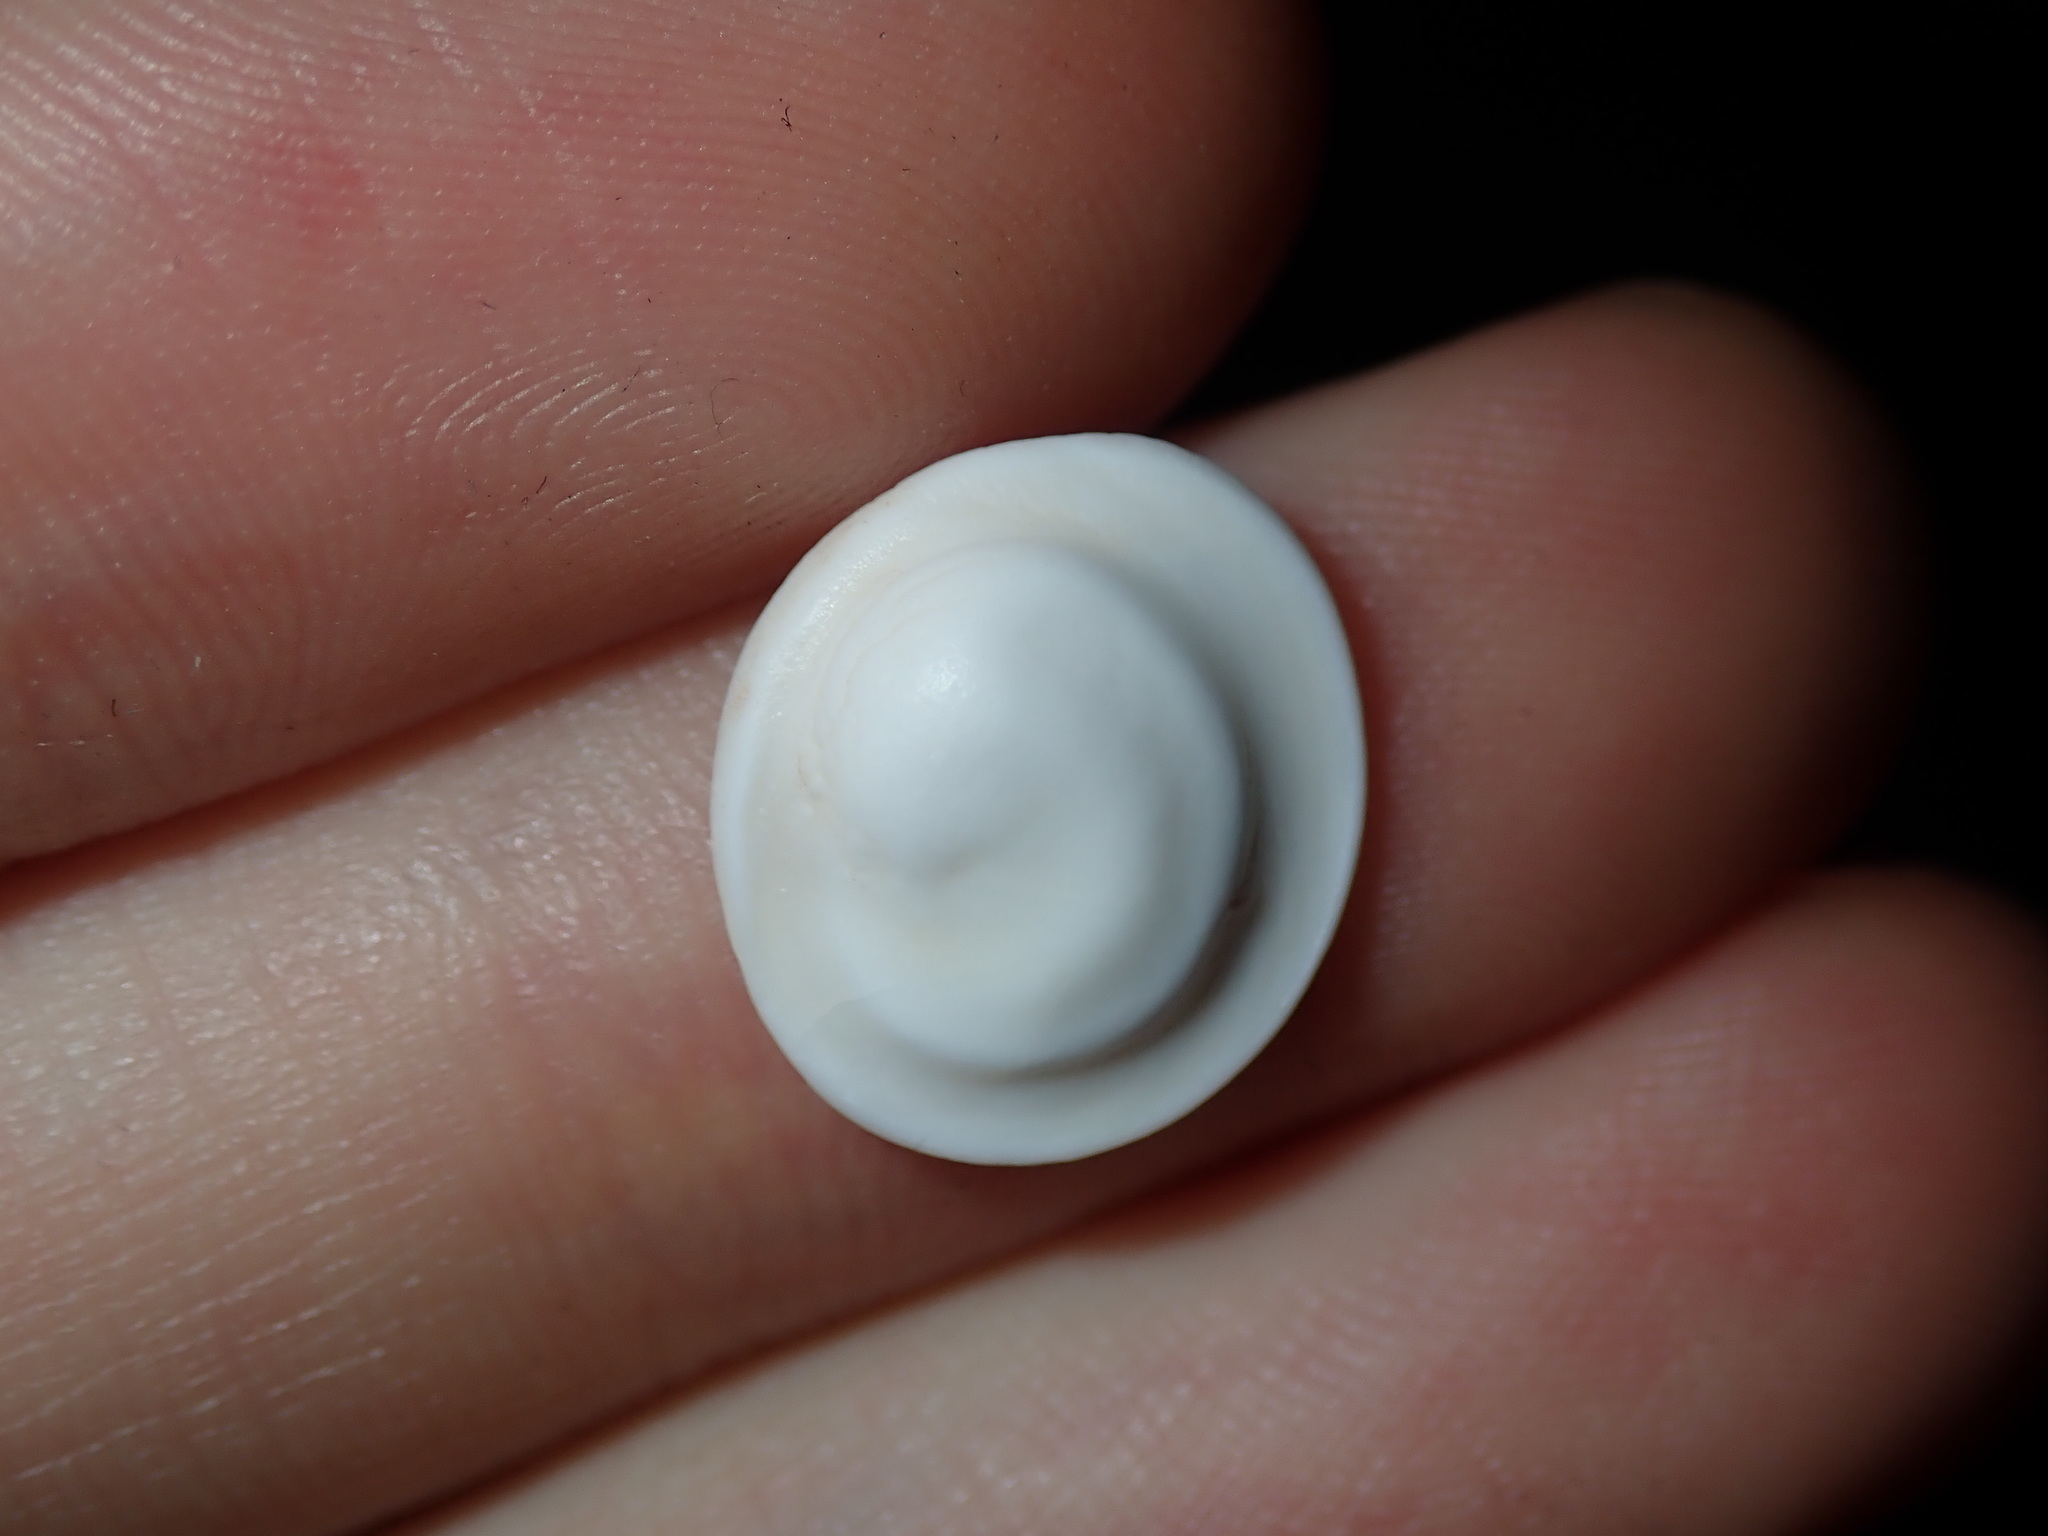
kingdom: Animalia
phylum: Mollusca
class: Gastropoda
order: Trochida
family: Turbinidae
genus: Lunella
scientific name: Lunella undulata
